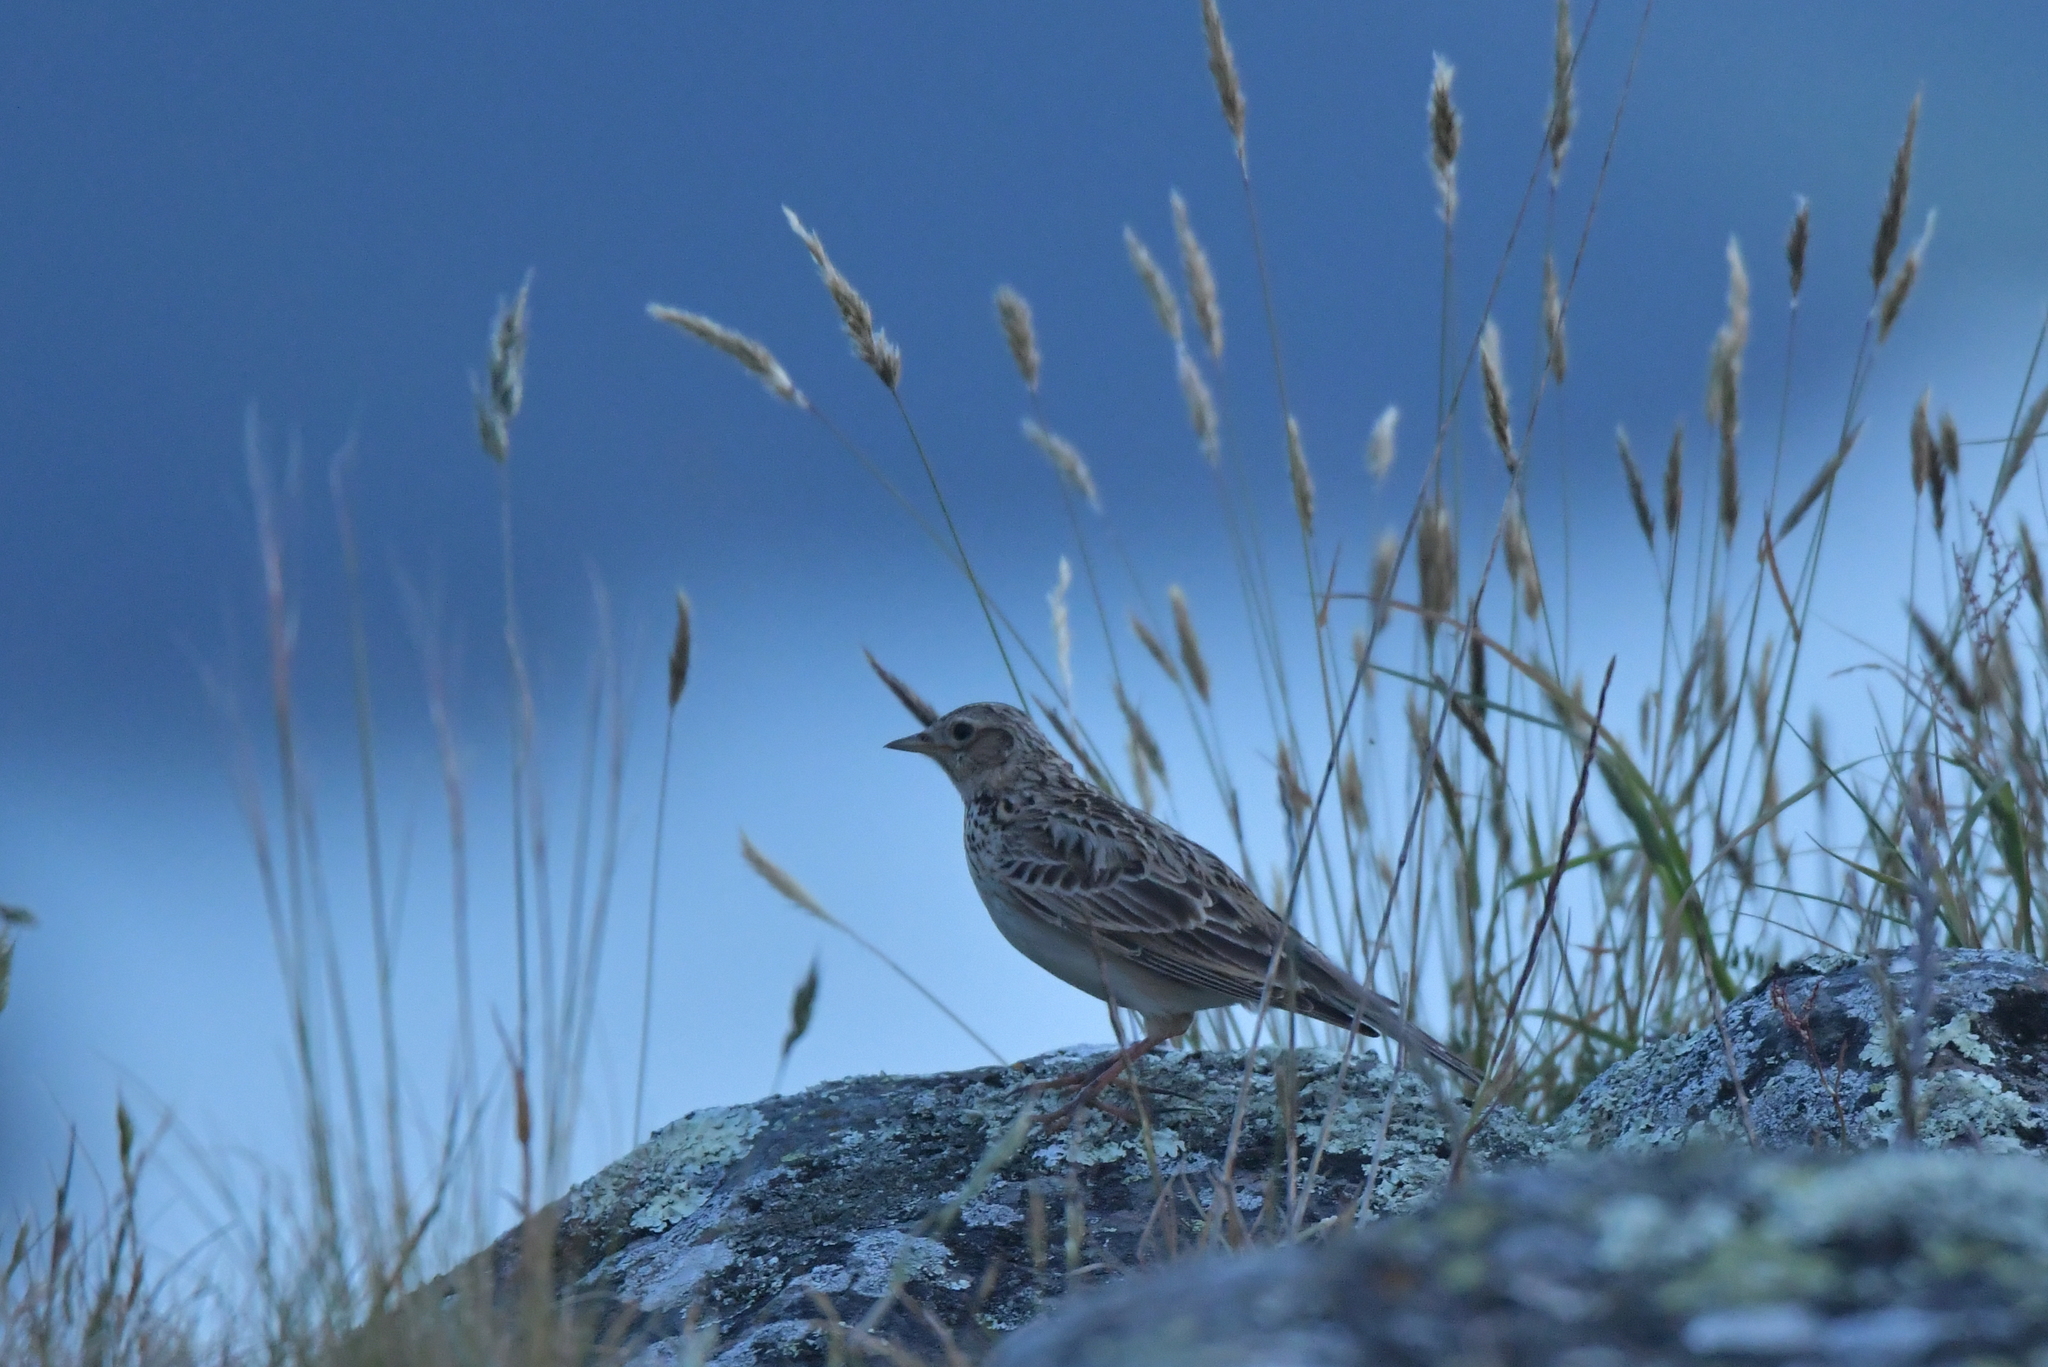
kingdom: Animalia
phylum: Chordata
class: Aves
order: Passeriformes
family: Alaudidae
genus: Alauda
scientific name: Alauda arvensis
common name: Eurasian skylark
